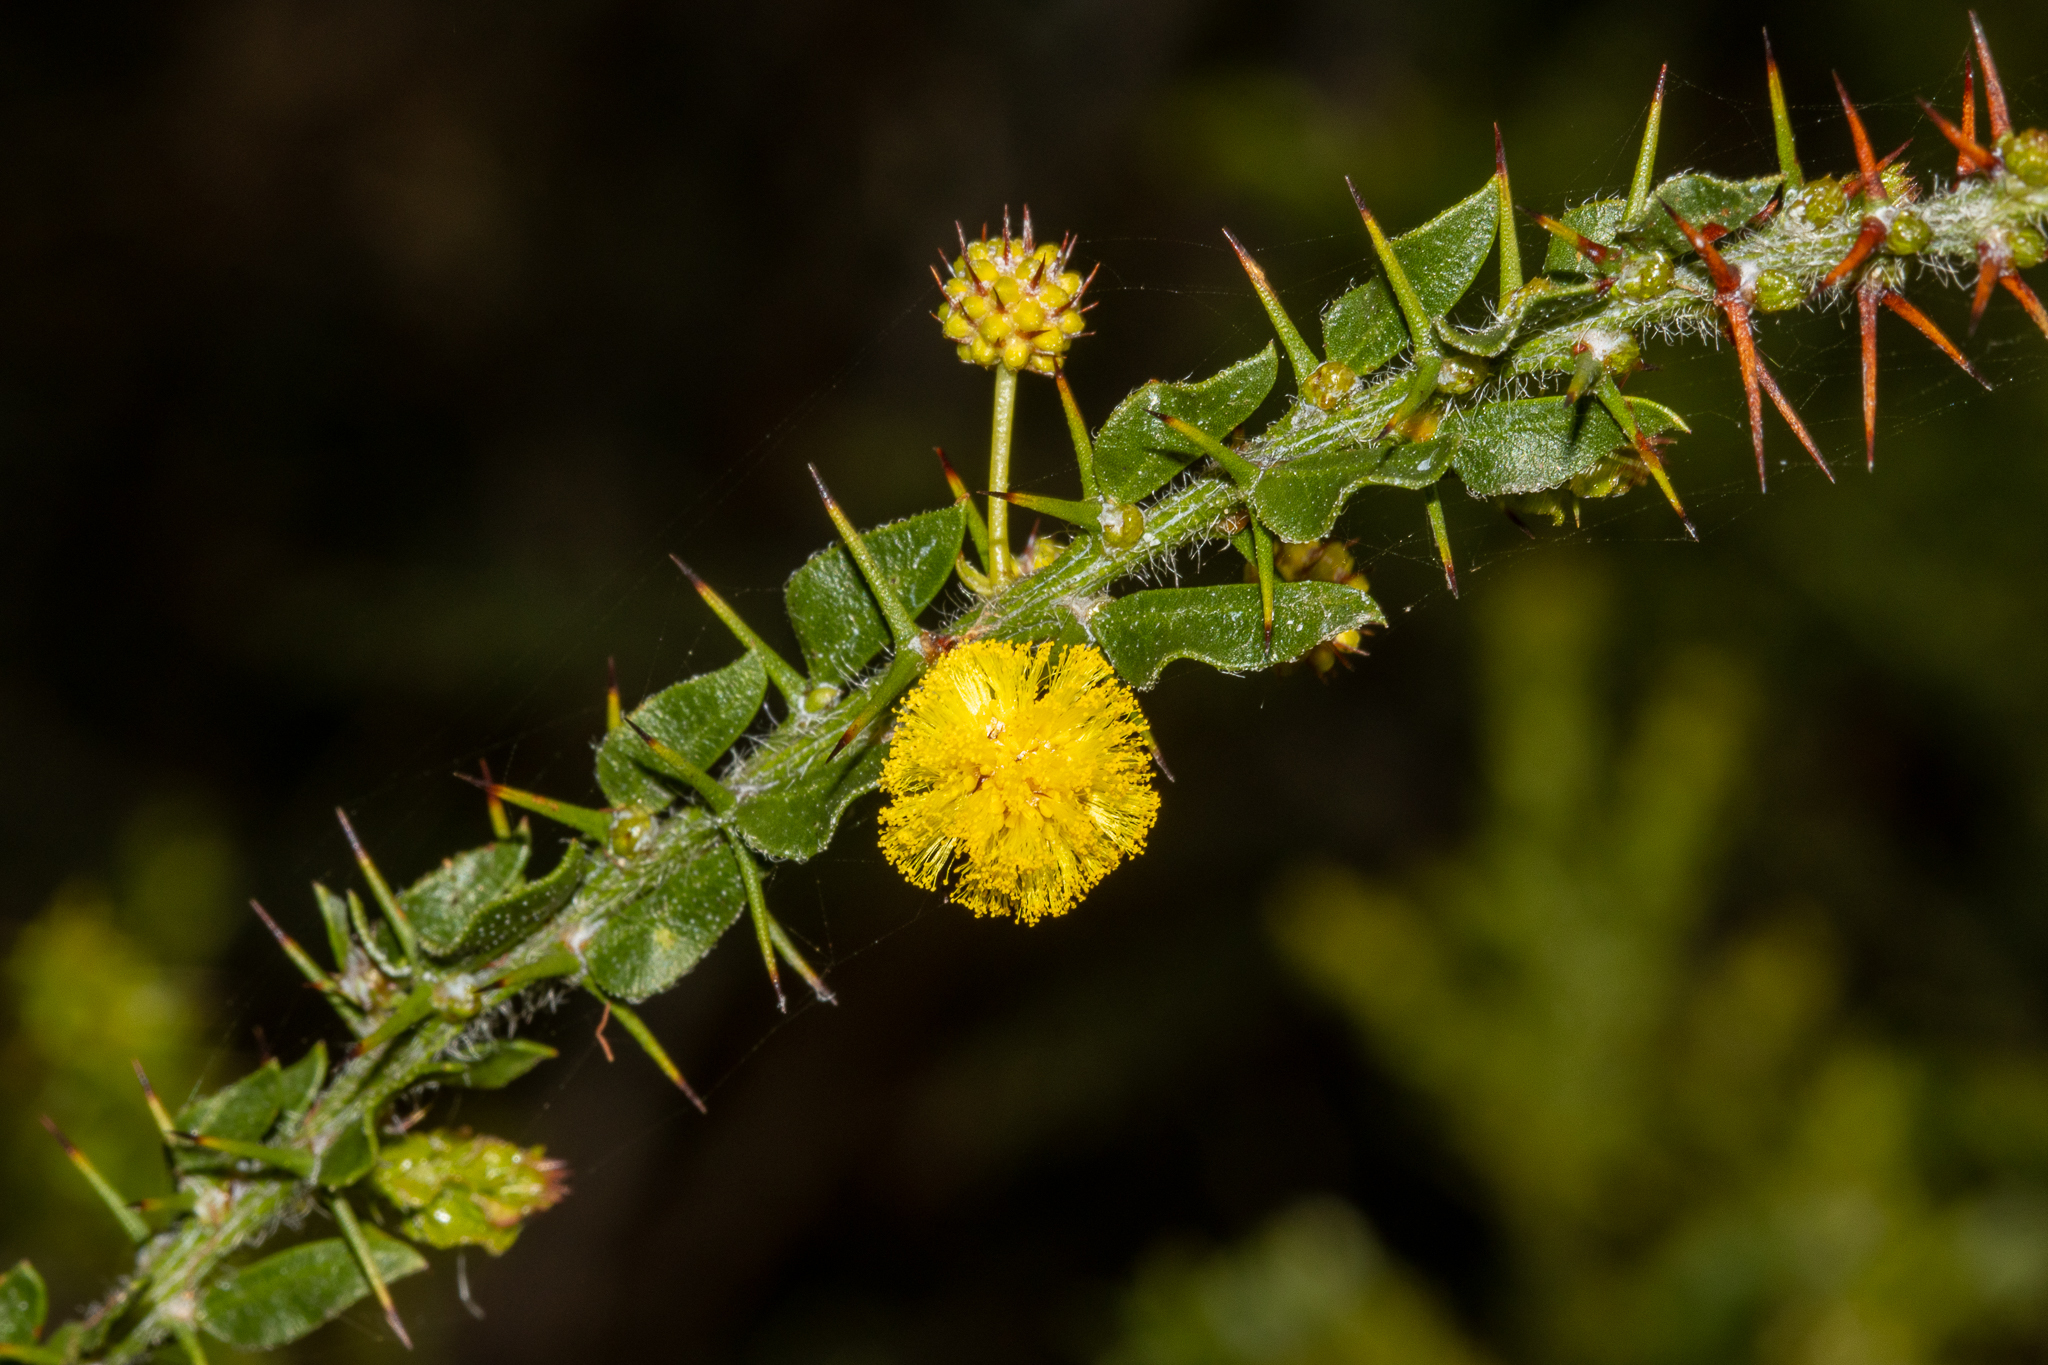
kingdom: Plantae
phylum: Tracheophyta
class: Magnoliopsida
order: Fabales
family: Fabaceae
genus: Acacia
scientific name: Acacia paradoxa
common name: Paradox acacia
